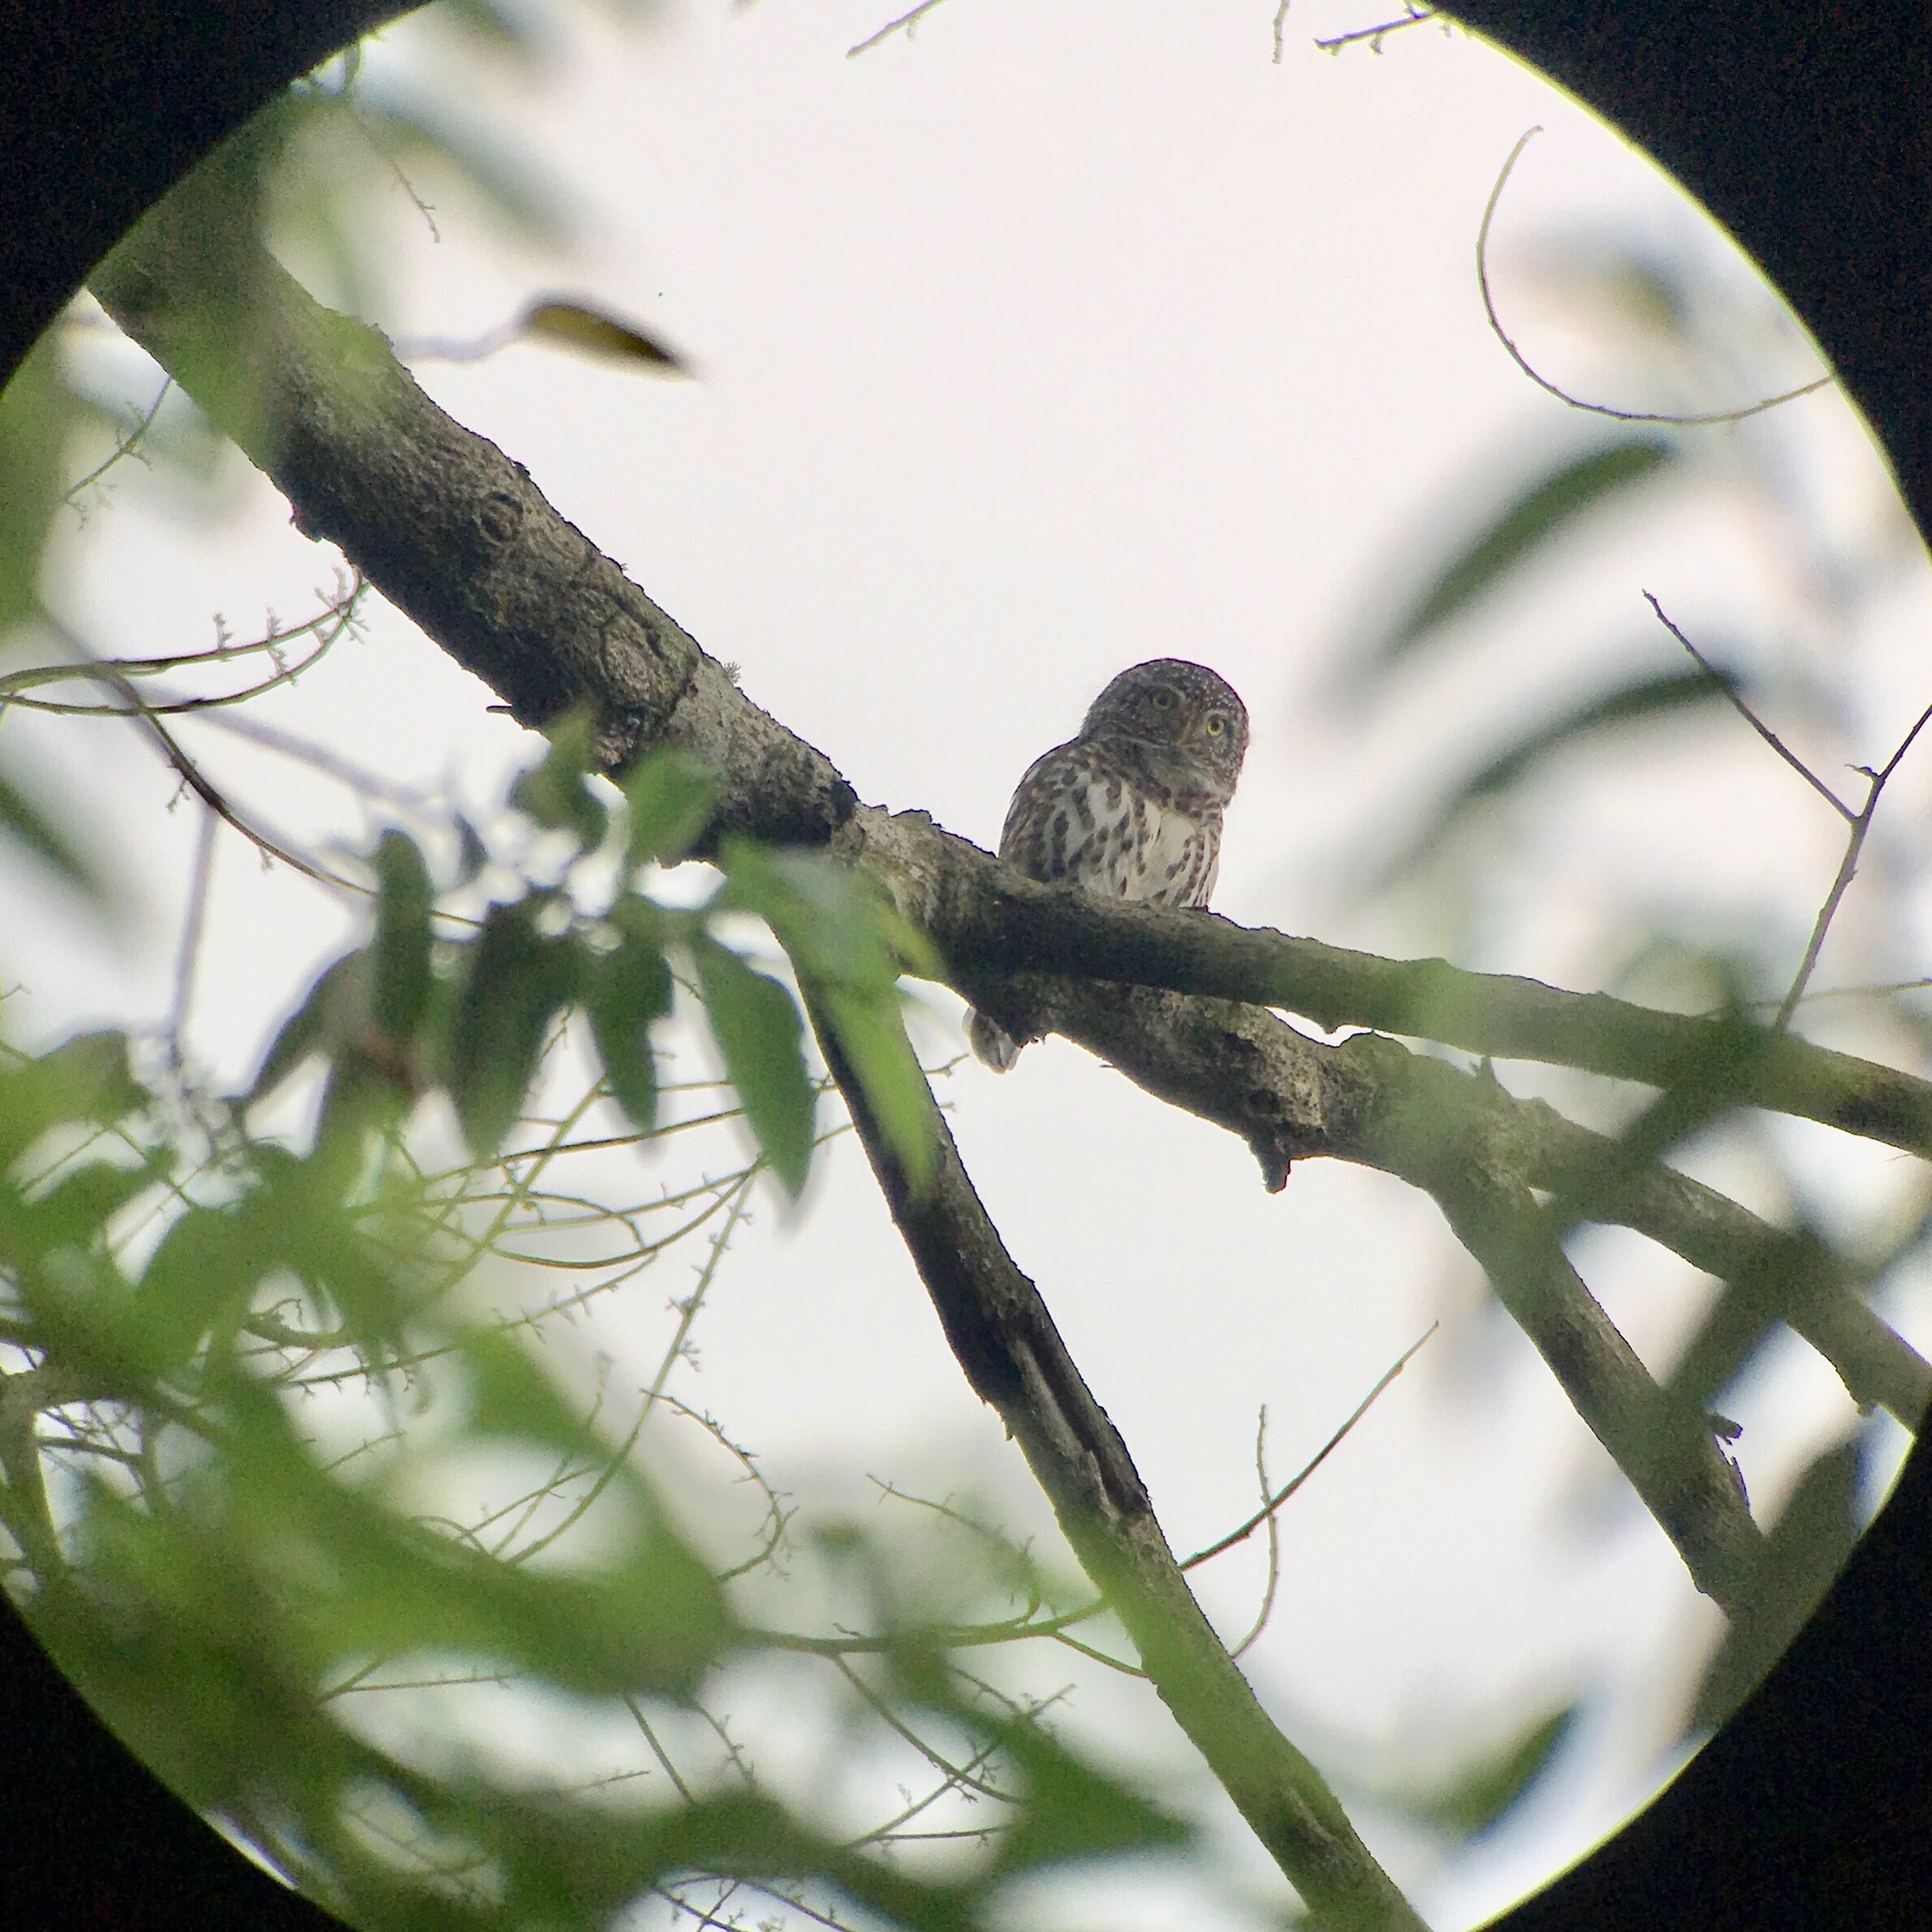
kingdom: Animalia
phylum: Chordata
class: Aves
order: Strigiformes
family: Strigidae
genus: Glaucidium
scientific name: Glaucidium brodiei
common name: Collared owlet
